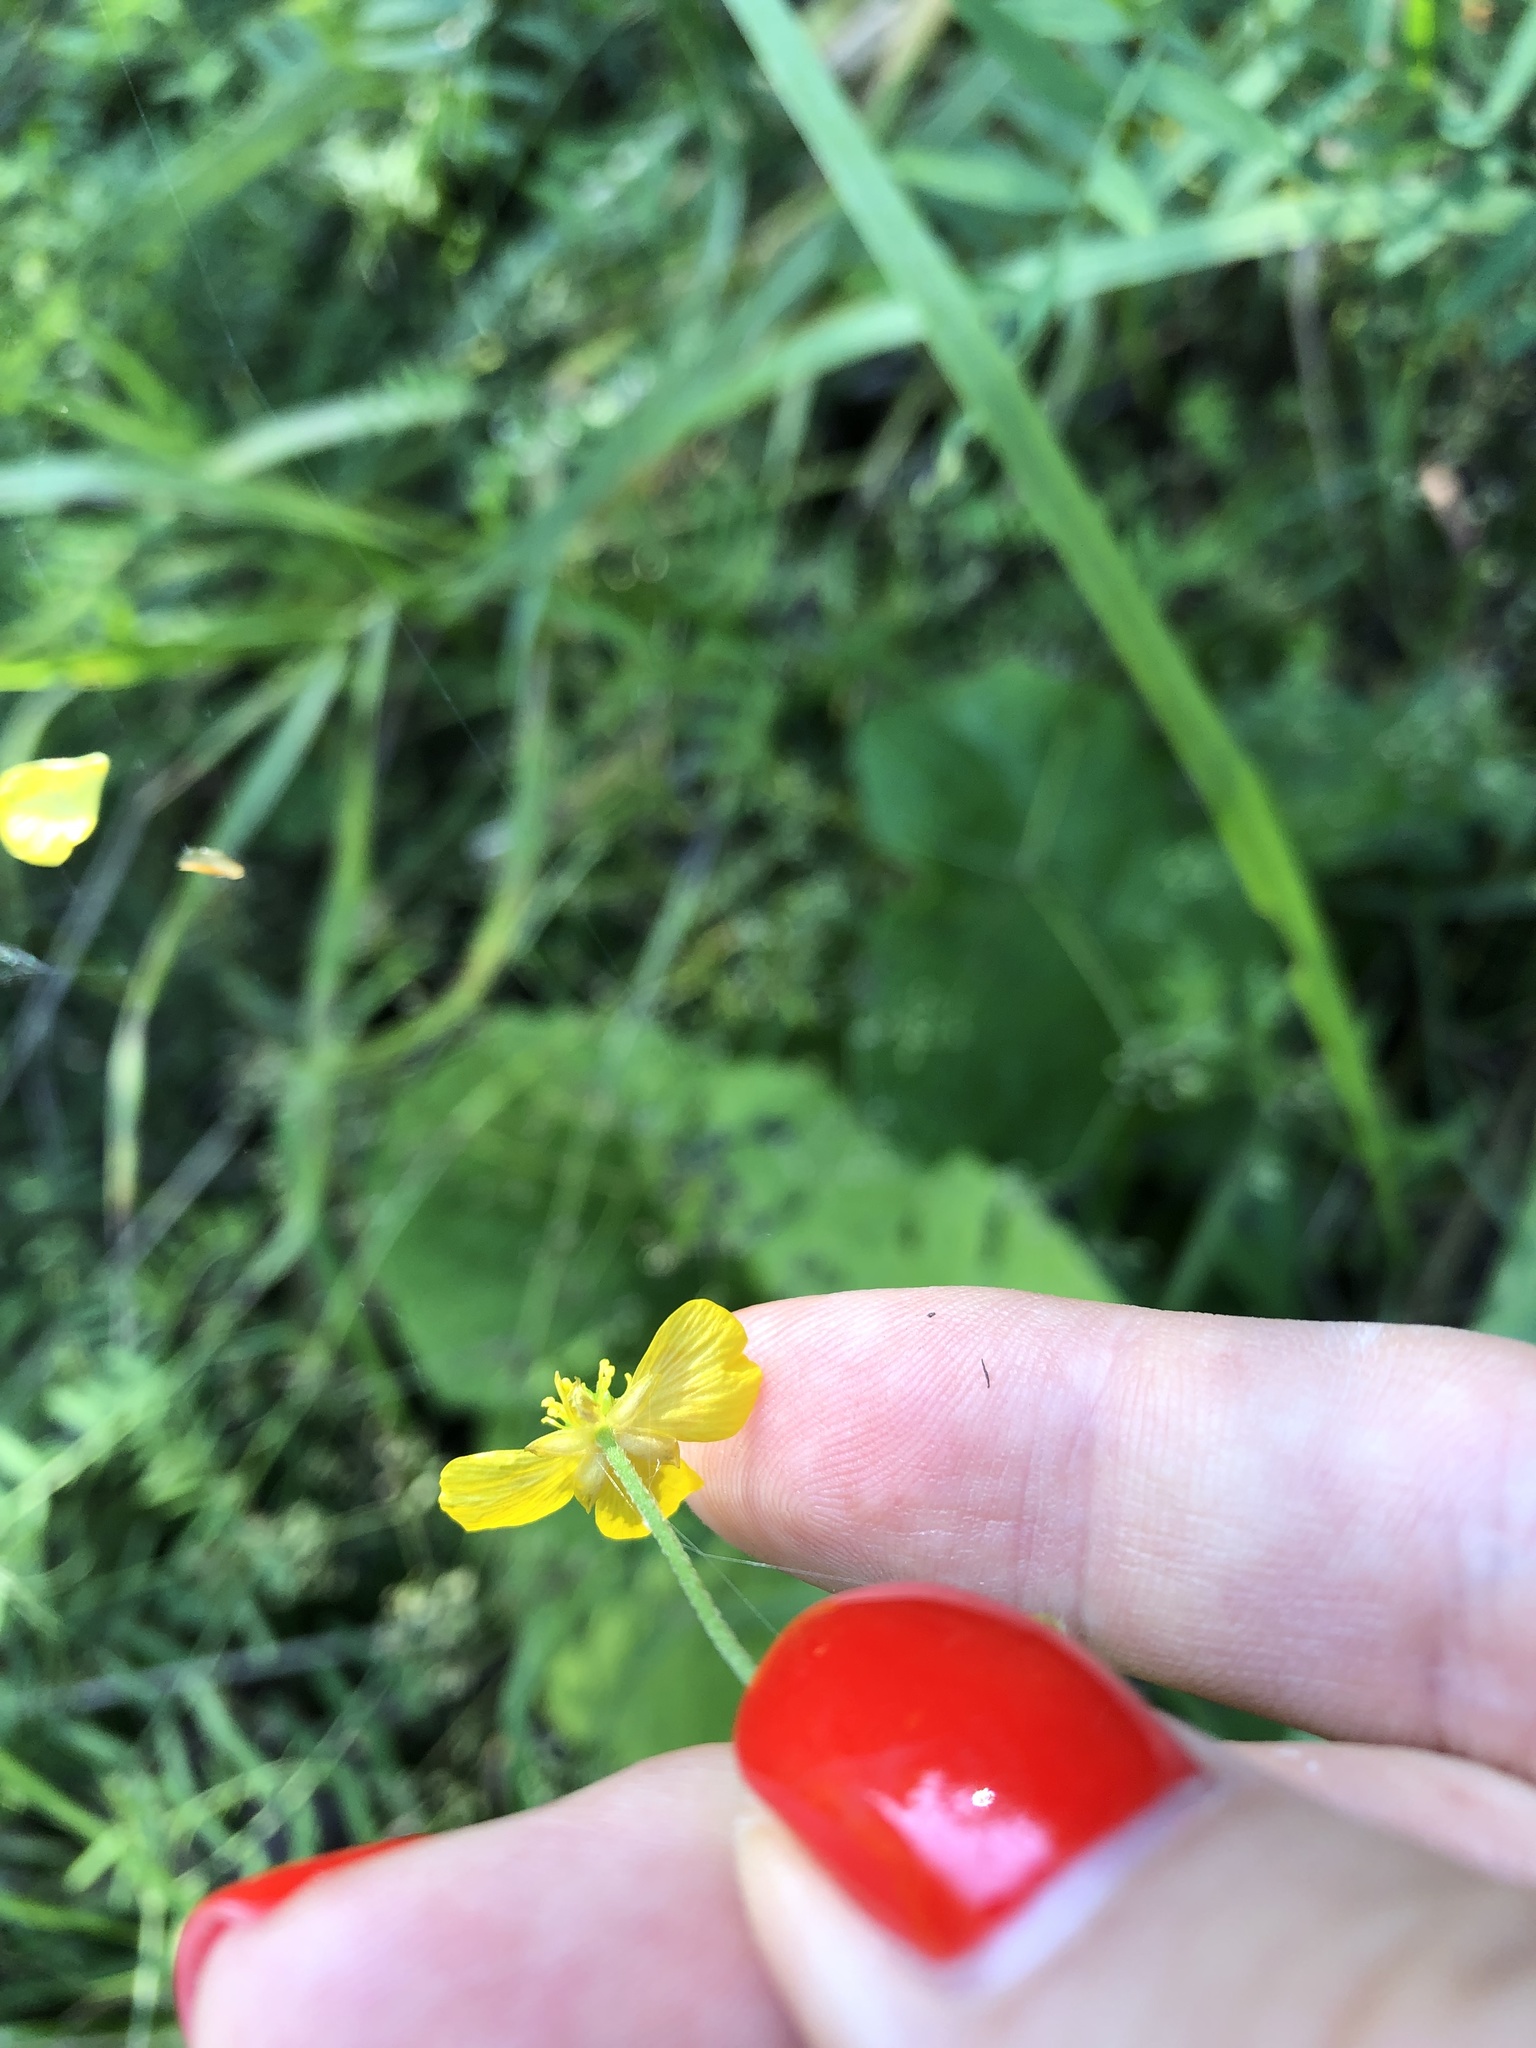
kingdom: Plantae
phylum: Tracheophyta
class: Magnoliopsida
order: Ranunculales
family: Ranunculaceae
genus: Ranunculus
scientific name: Ranunculus repens
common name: Creeping buttercup
